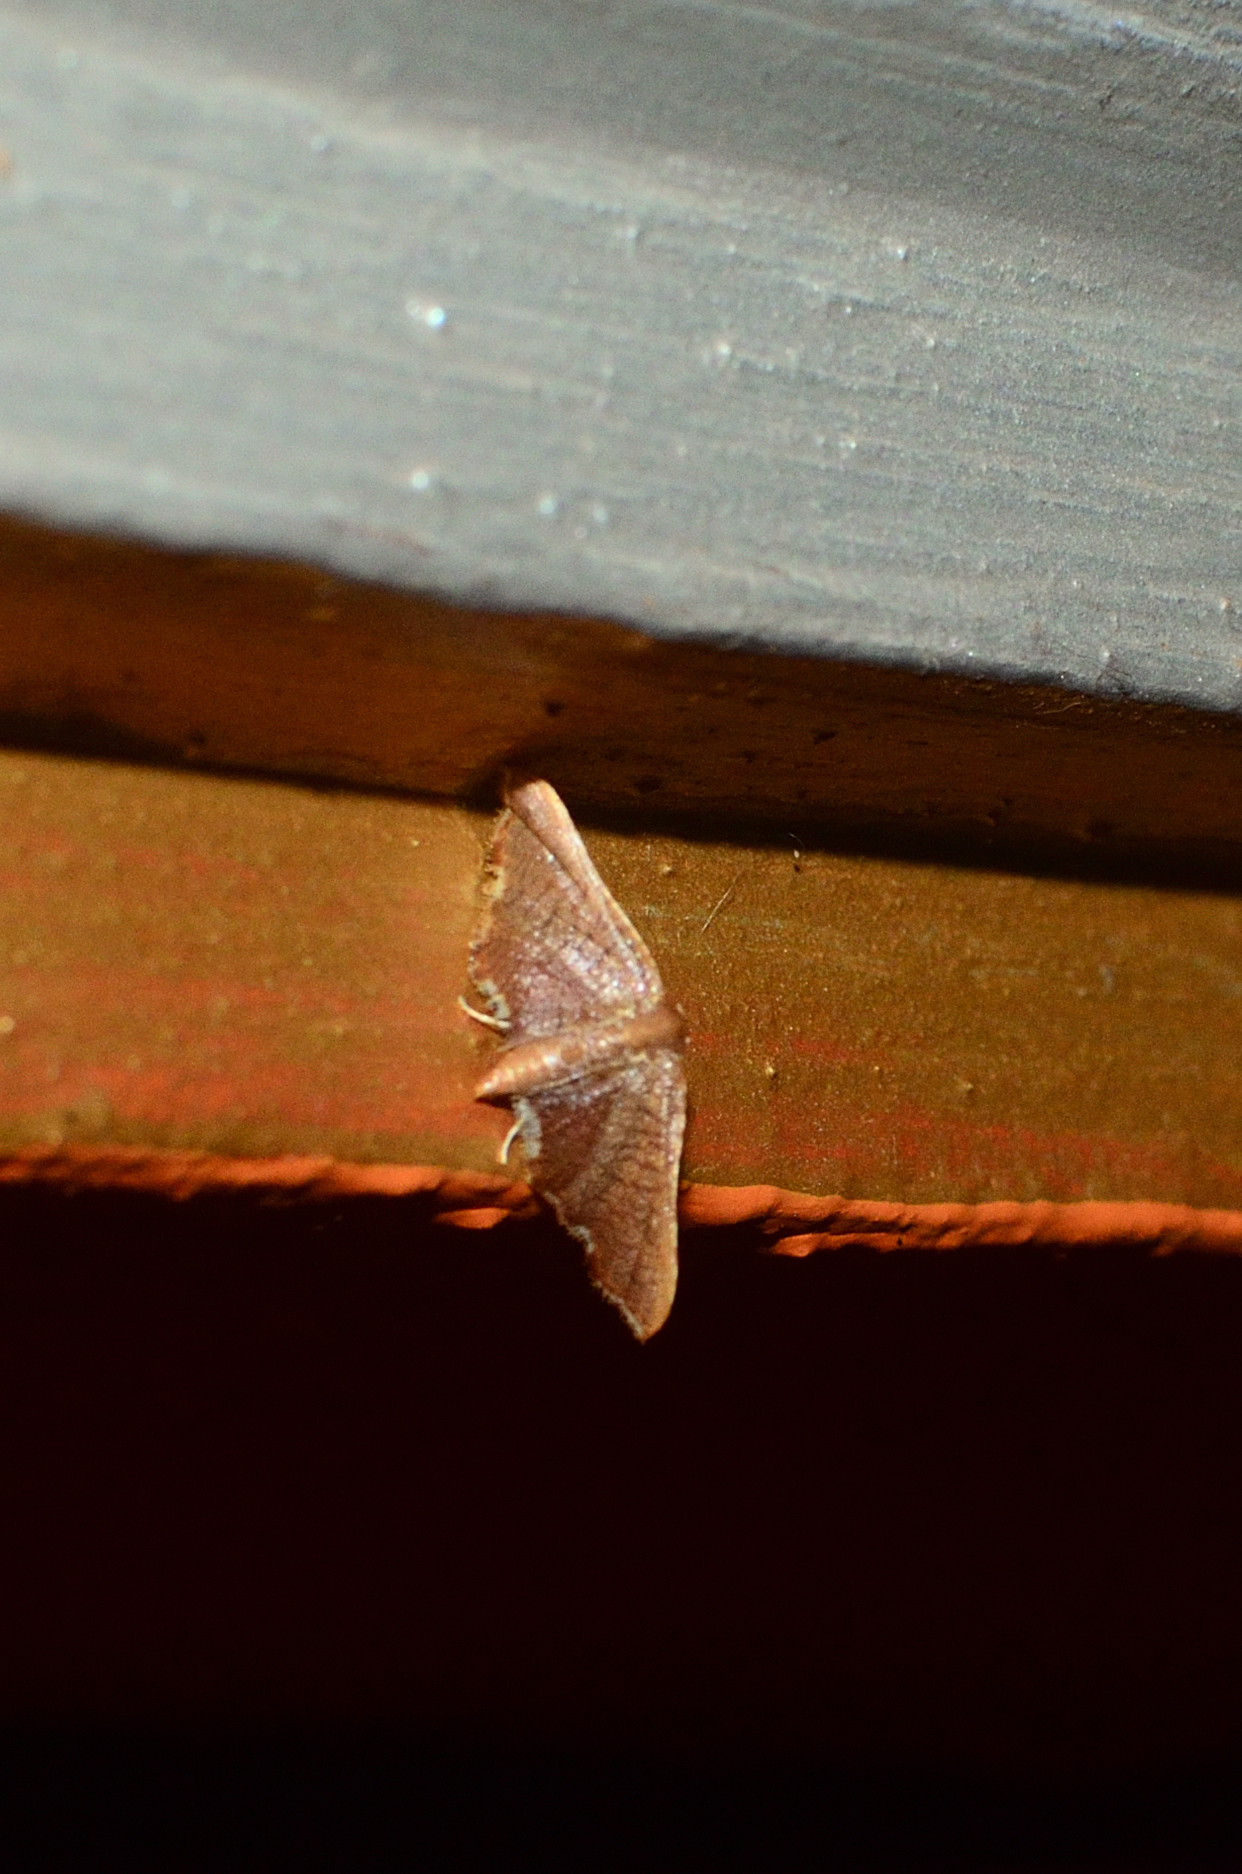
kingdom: Animalia
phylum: Arthropoda
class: Insecta
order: Lepidoptera
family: Thyrididae
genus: Hypolamprus
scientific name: Hypolamprus angulalis
